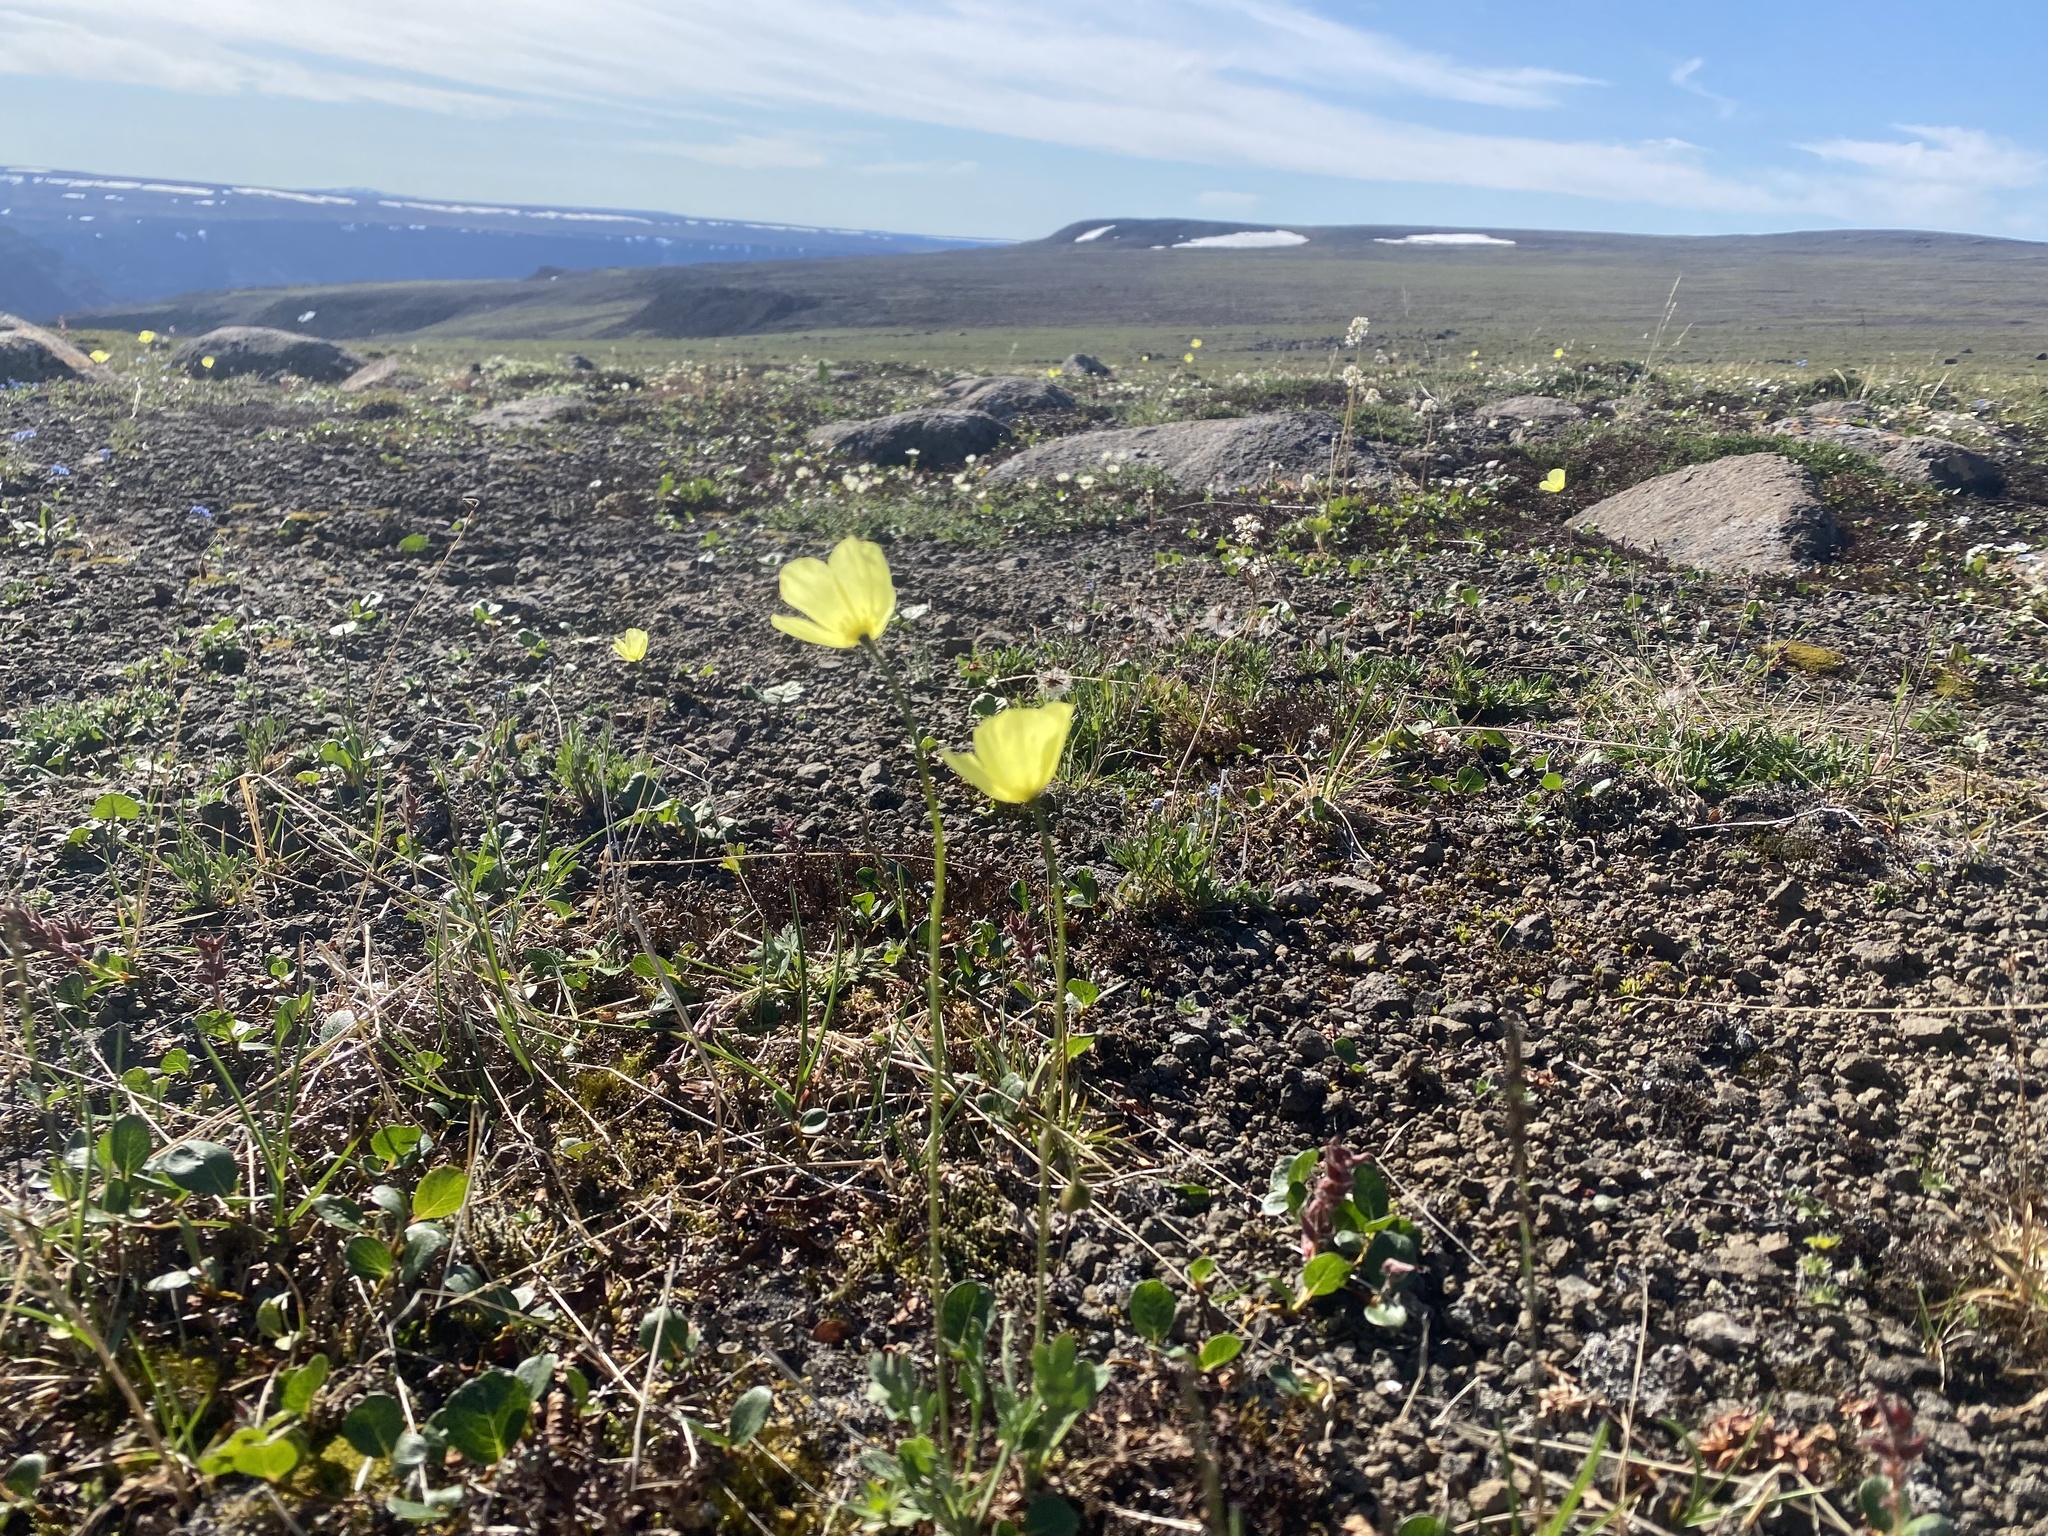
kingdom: Plantae
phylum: Tracheophyta
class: Magnoliopsida
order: Ranunculales
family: Papaveraceae
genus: Papaver
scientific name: Papaver variegatum
